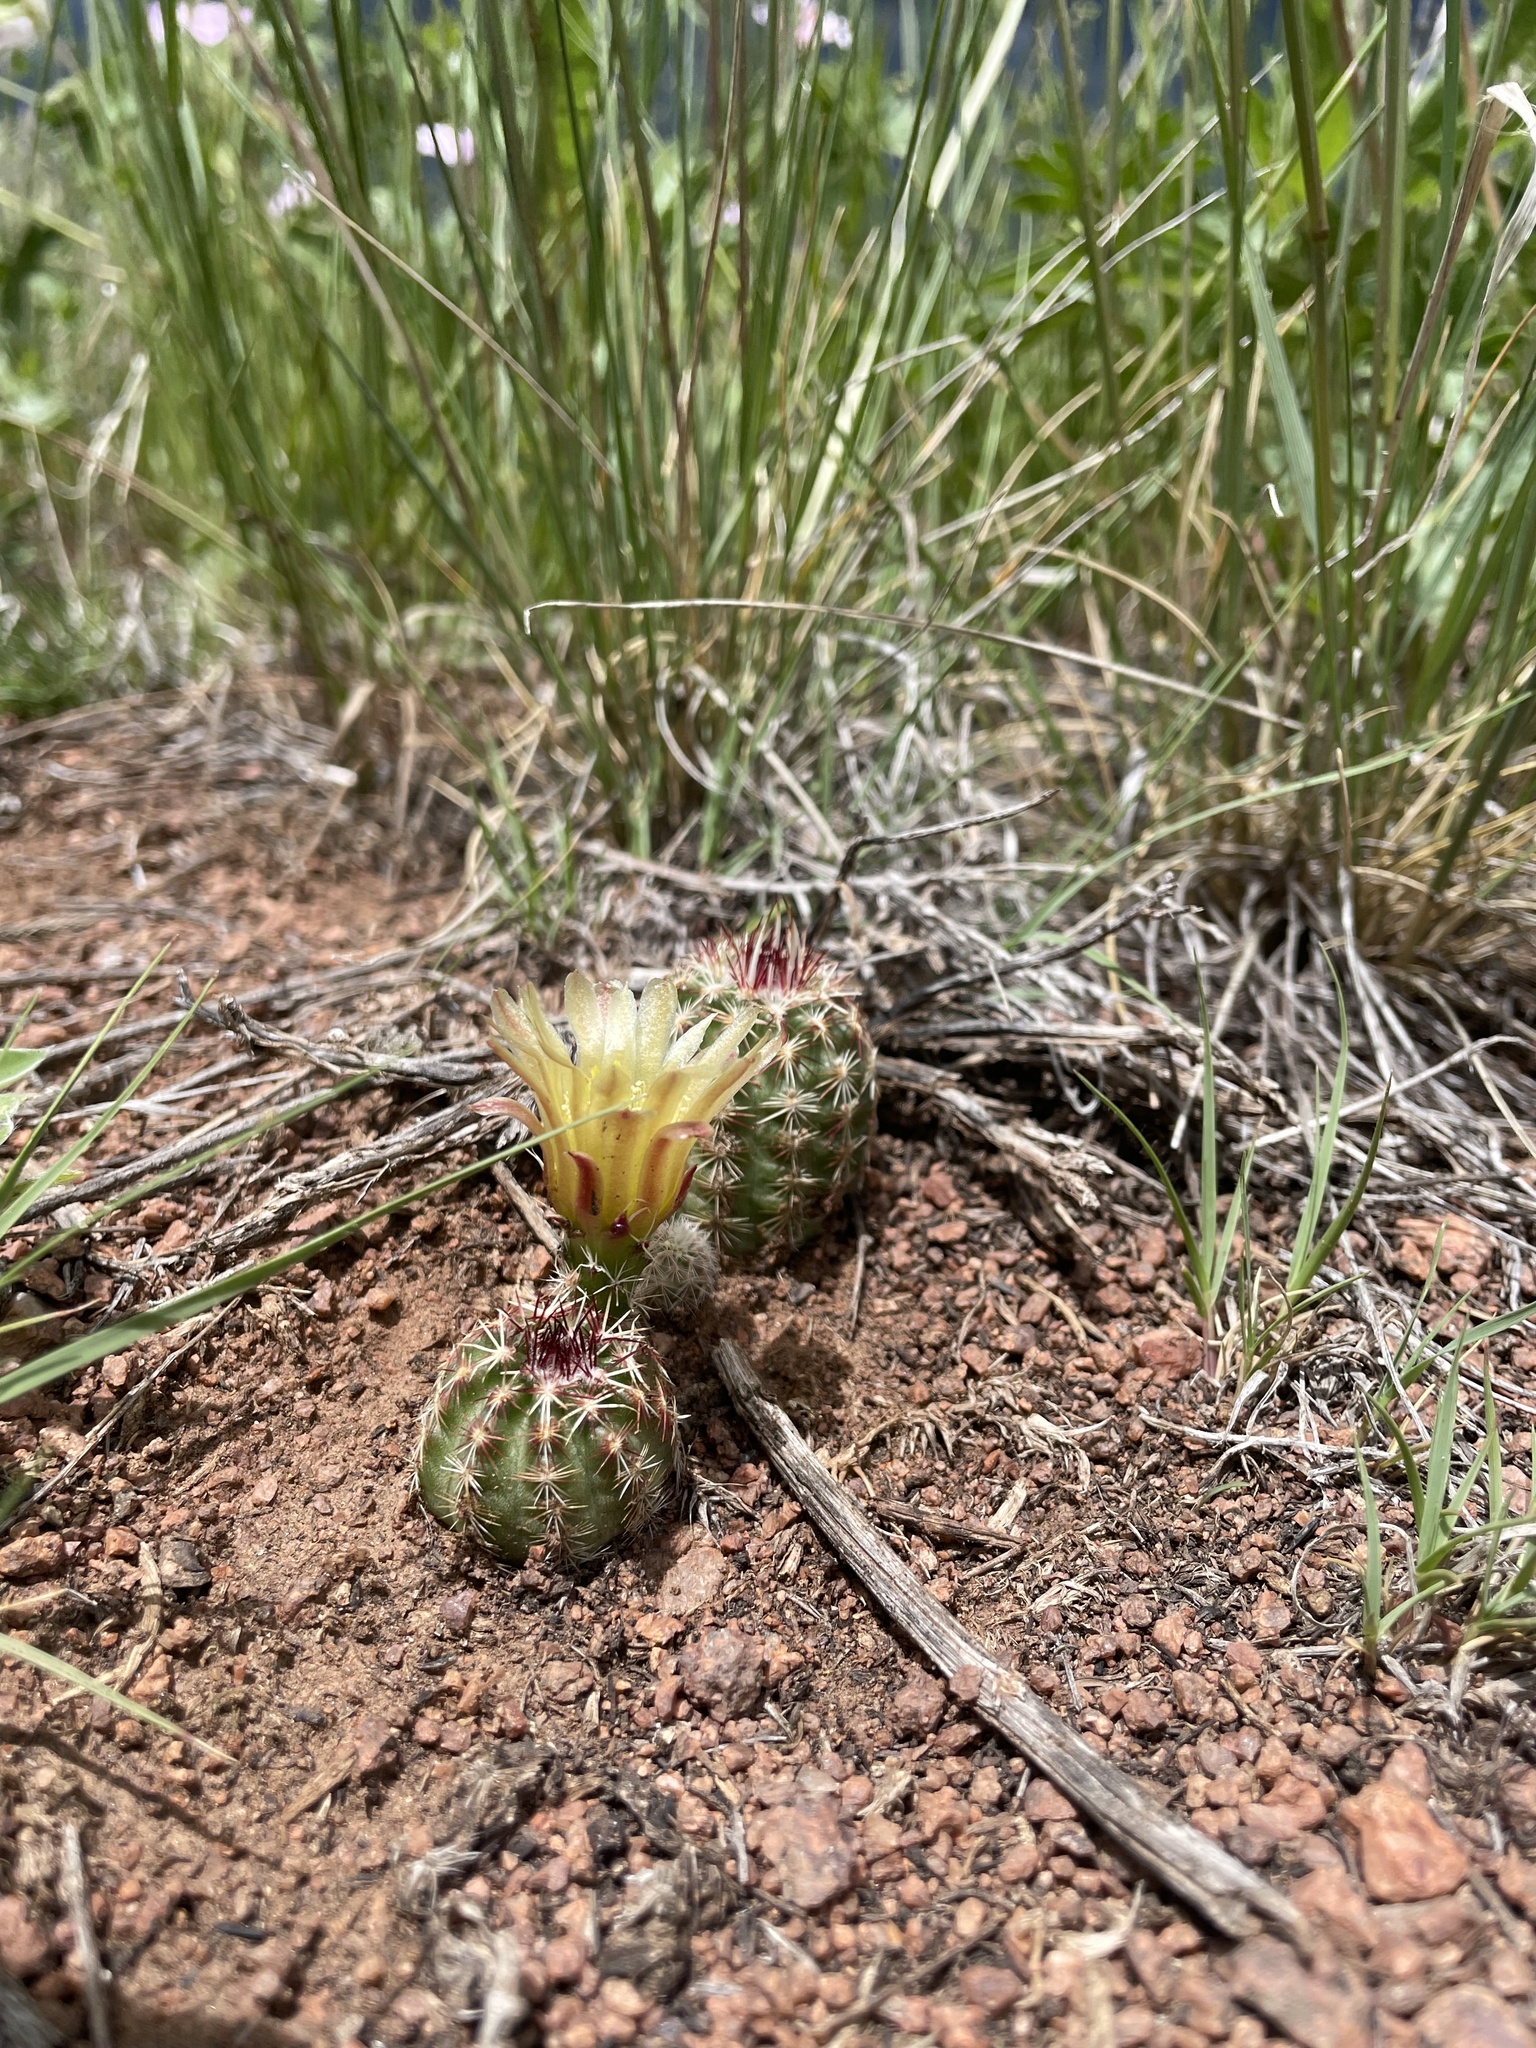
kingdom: Plantae
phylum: Tracheophyta
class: Magnoliopsida
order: Caryophyllales
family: Cactaceae
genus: Echinocereus
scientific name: Echinocereus viridiflorus
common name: Nylon hedgehog cactus
